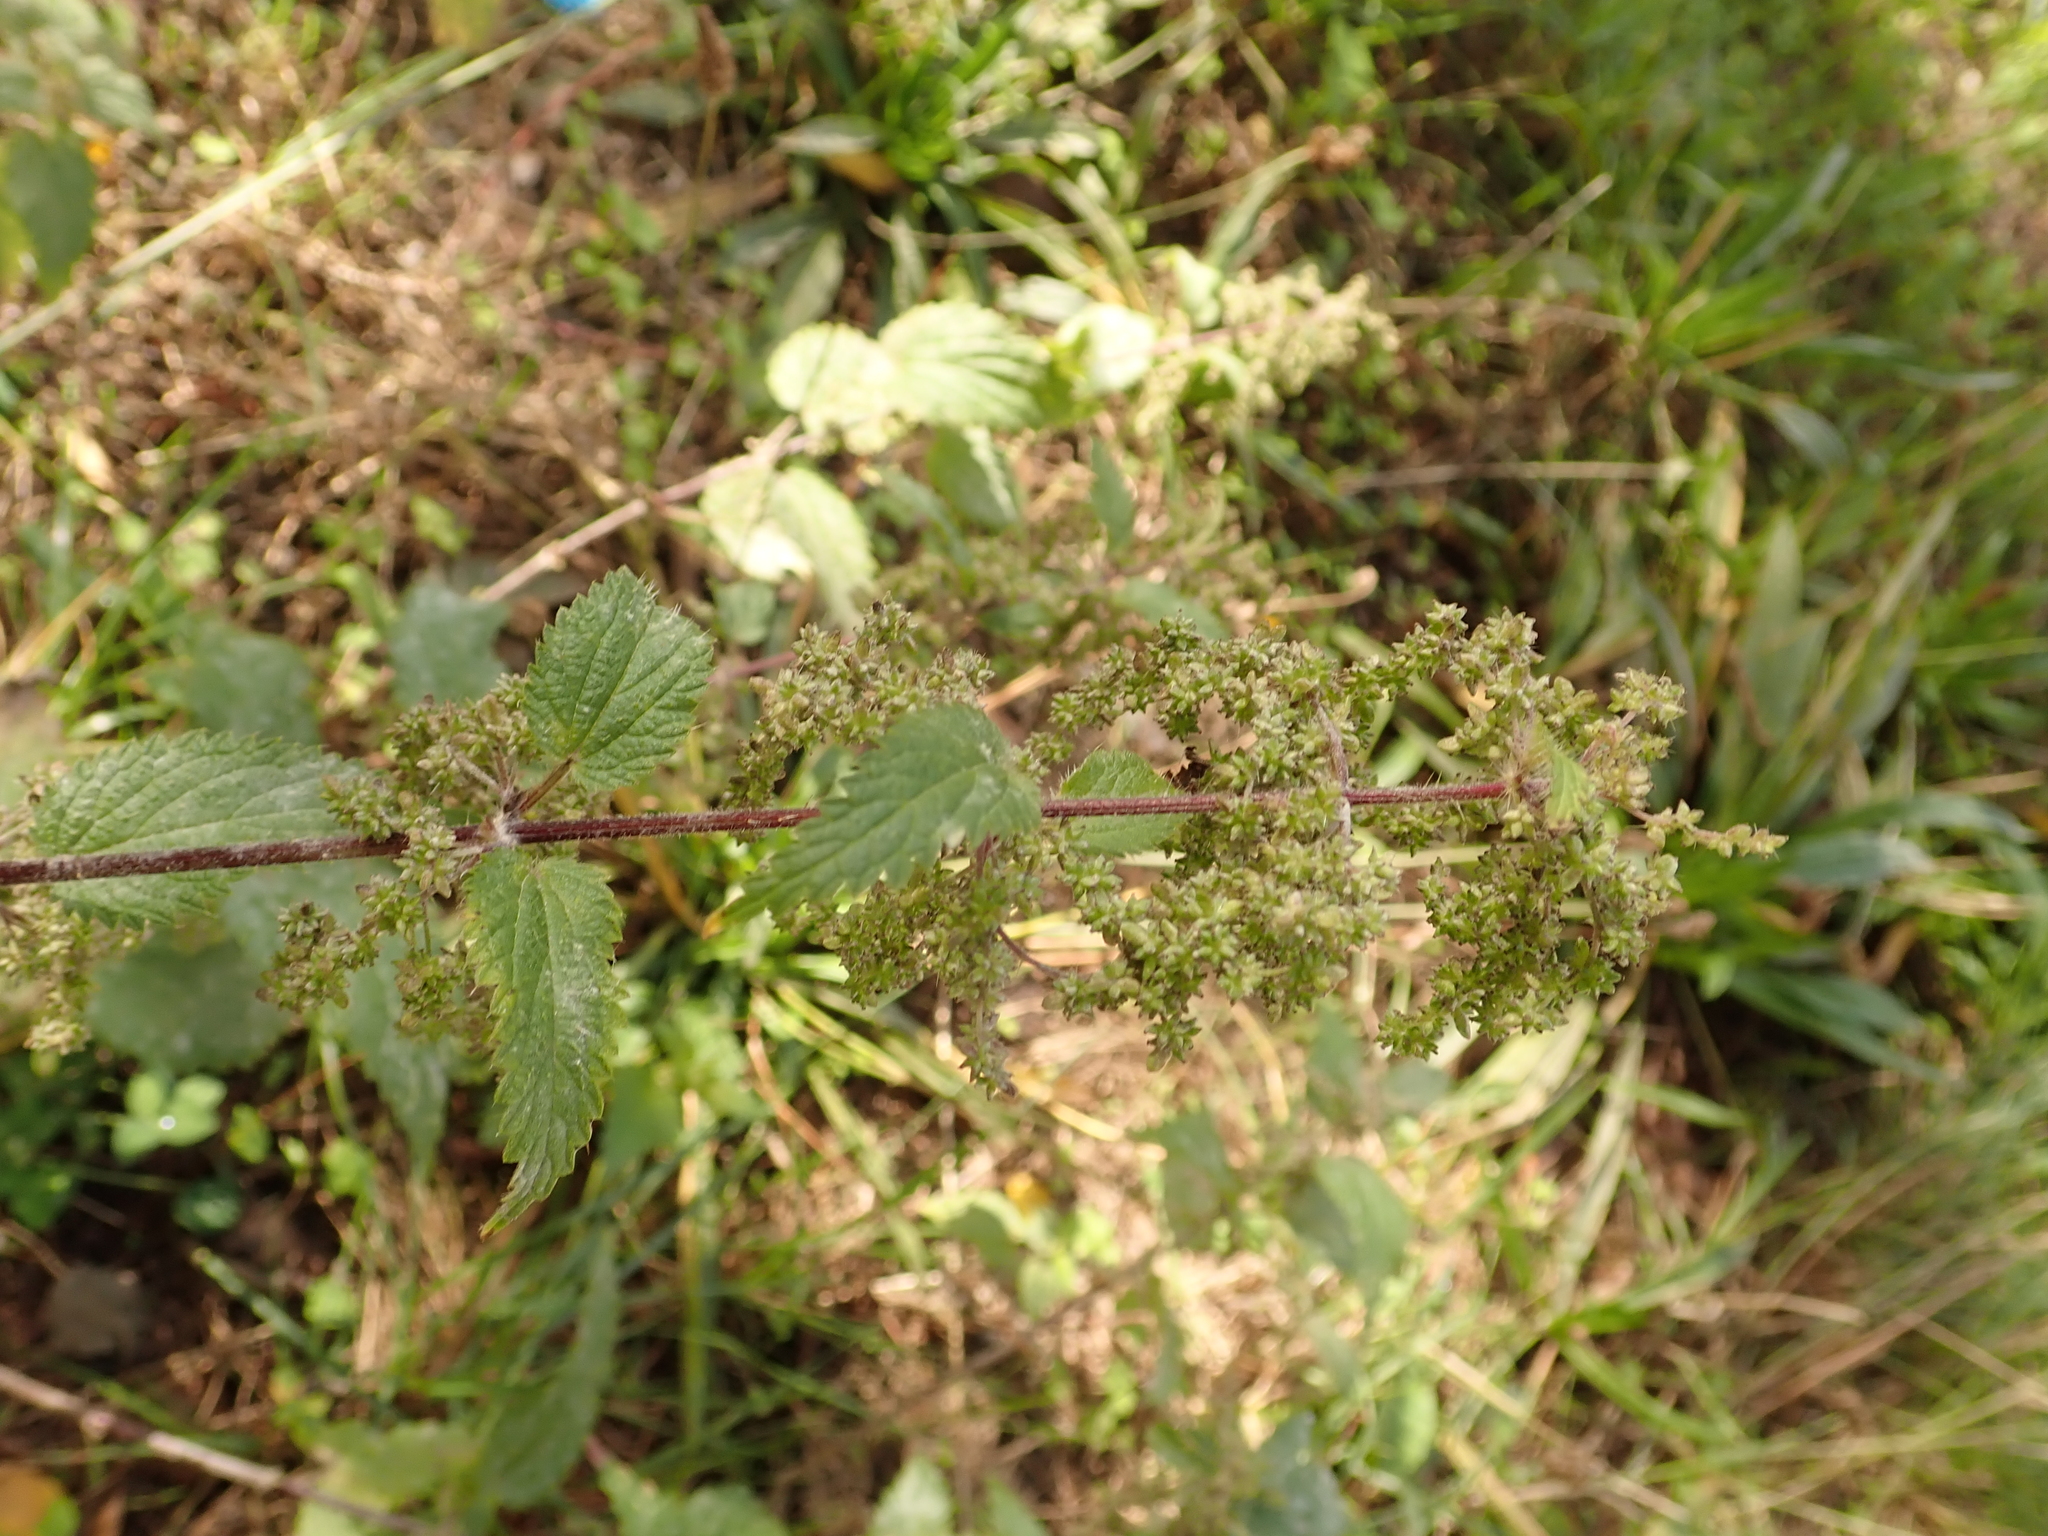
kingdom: Plantae
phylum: Tracheophyta
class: Magnoliopsida
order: Rosales
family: Urticaceae
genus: Urtica
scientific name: Urtica dioica
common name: Common nettle
